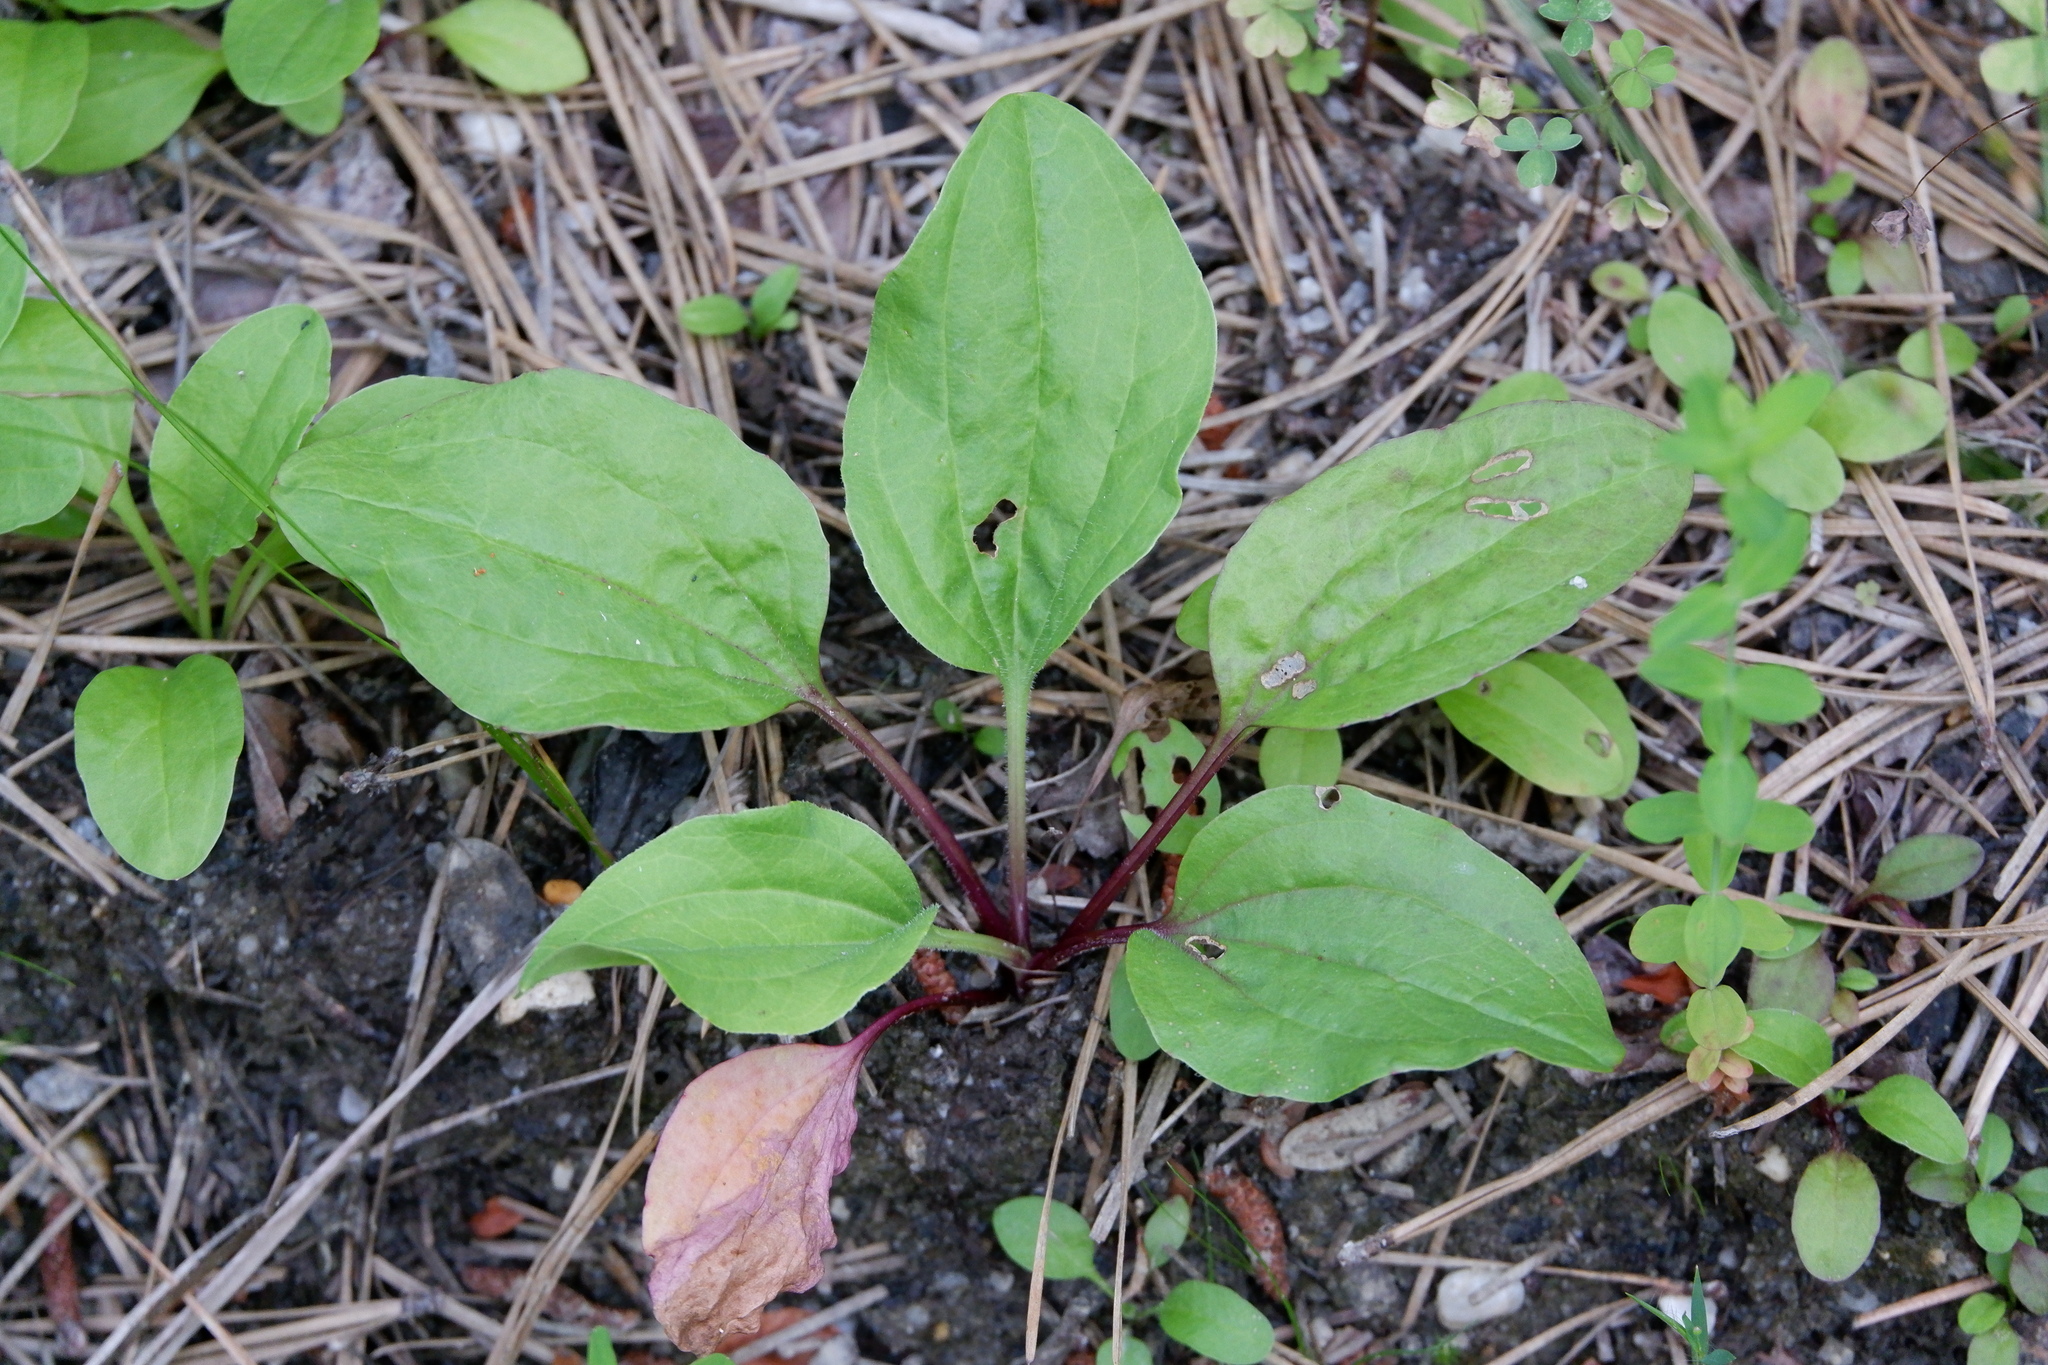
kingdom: Plantae
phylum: Tracheophyta
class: Magnoliopsida
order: Lamiales
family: Plantaginaceae
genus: Plantago
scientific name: Plantago rugelii
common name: American plantain
